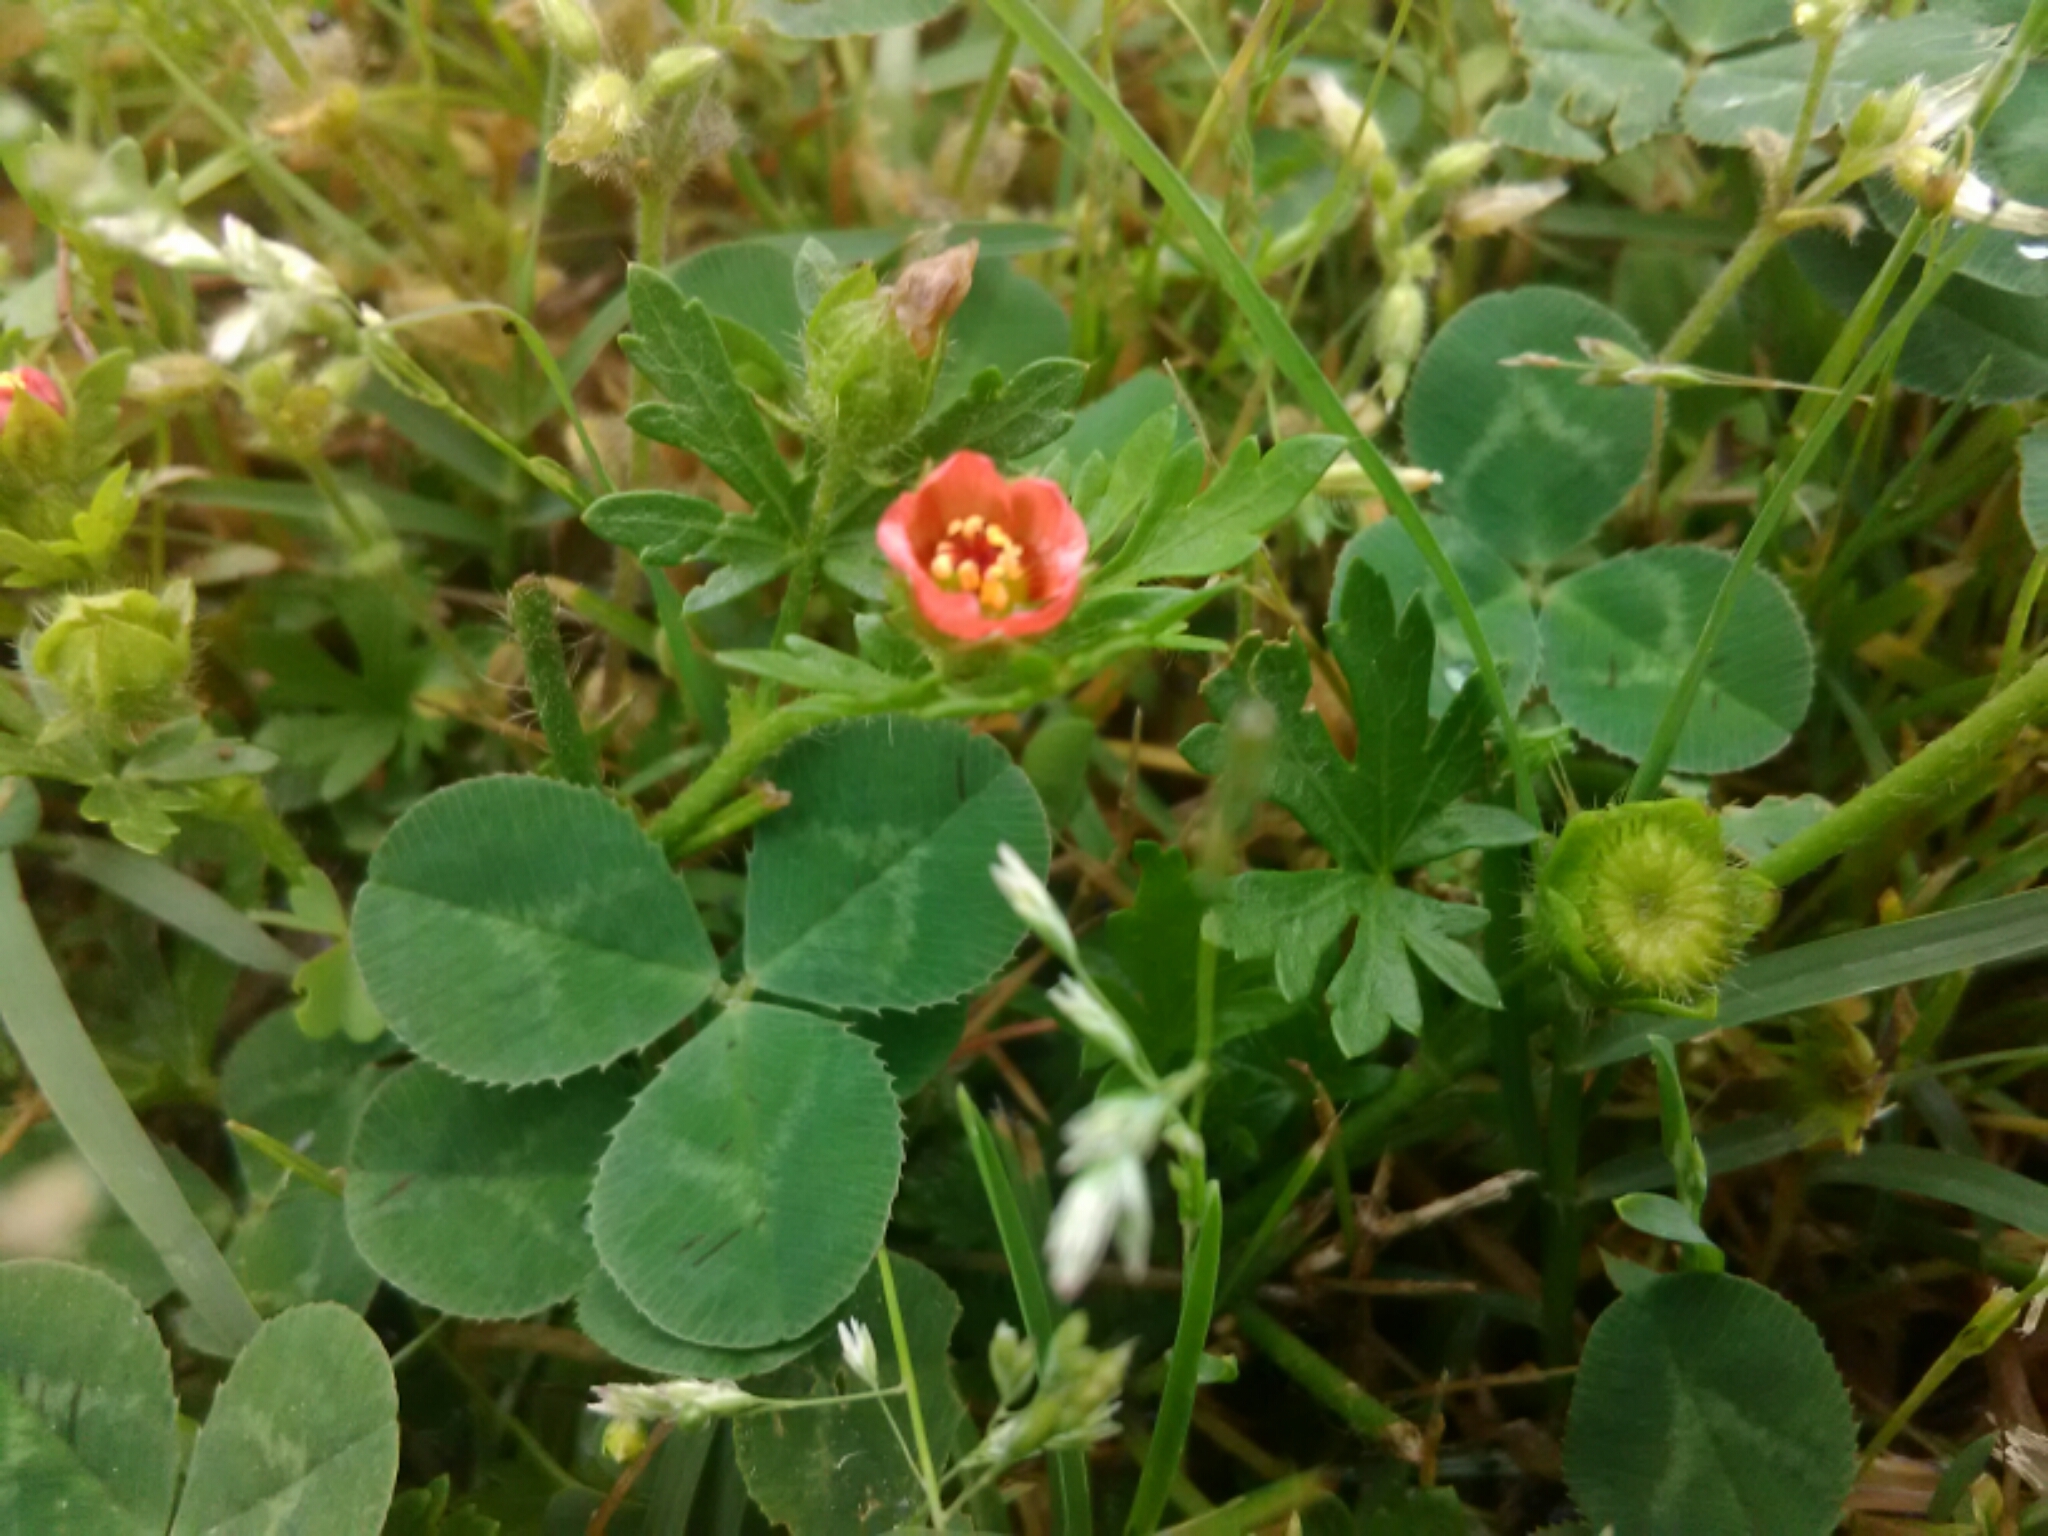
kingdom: Plantae
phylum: Tracheophyta
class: Magnoliopsida
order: Malvales
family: Malvaceae
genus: Modiola
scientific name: Modiola caroliniana
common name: Carolina bristlemallow
